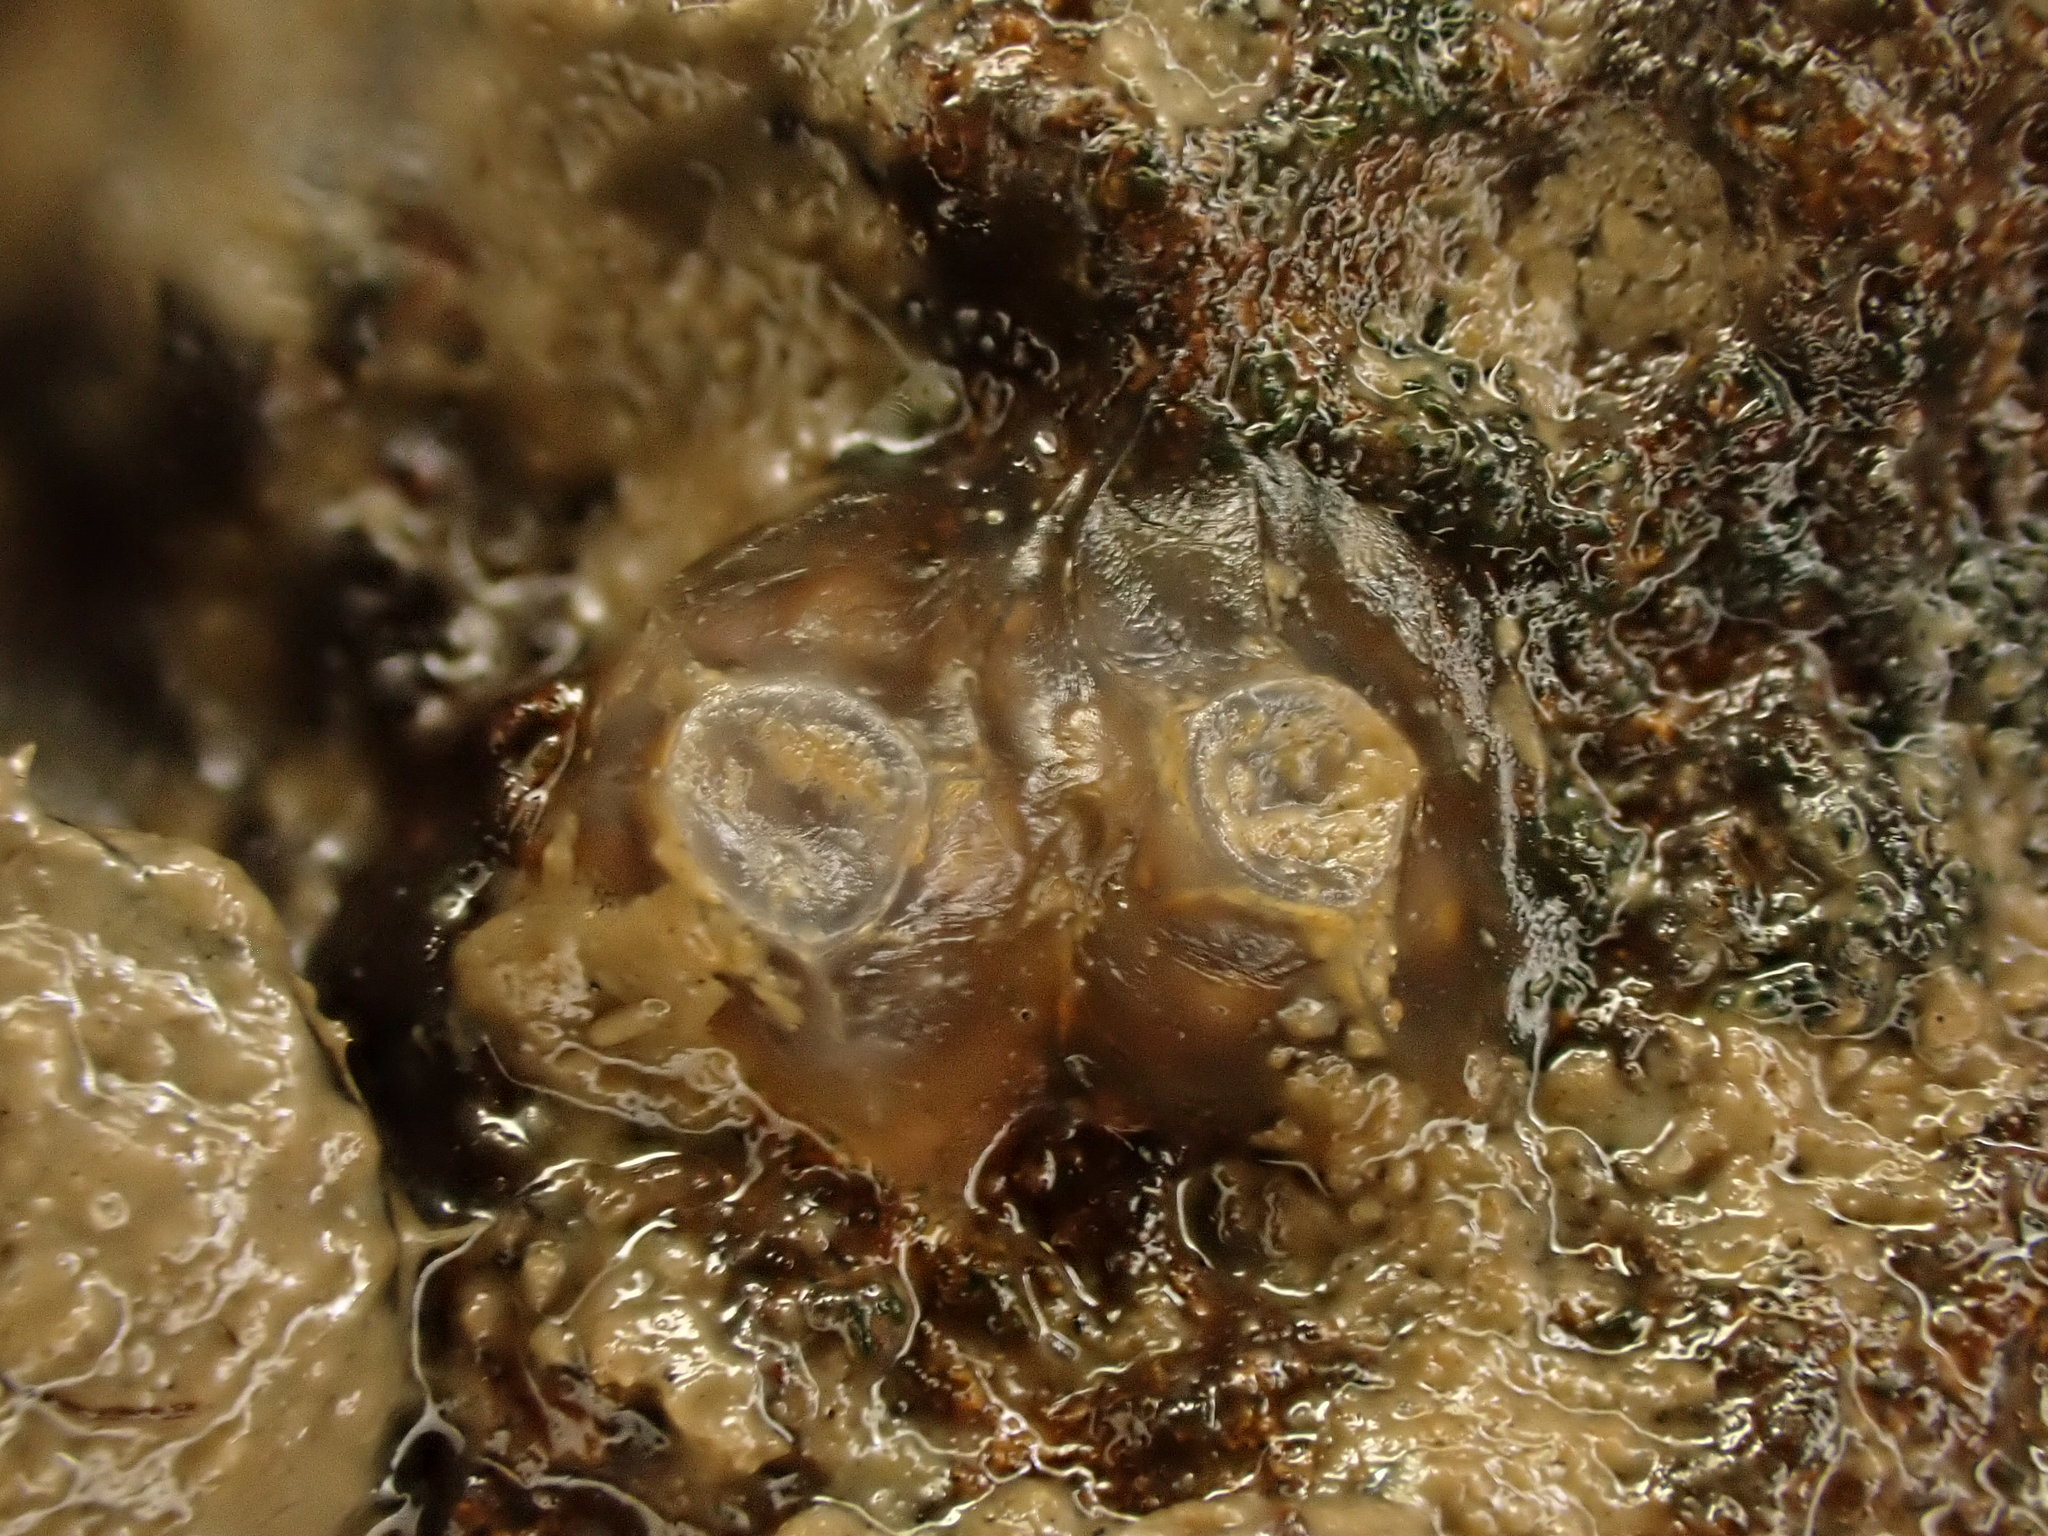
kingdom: Animalia
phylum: Mollusca
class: Gastropoda
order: Neogastropoda
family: Cominellidae
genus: Cominella
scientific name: Cominella glandiformis
